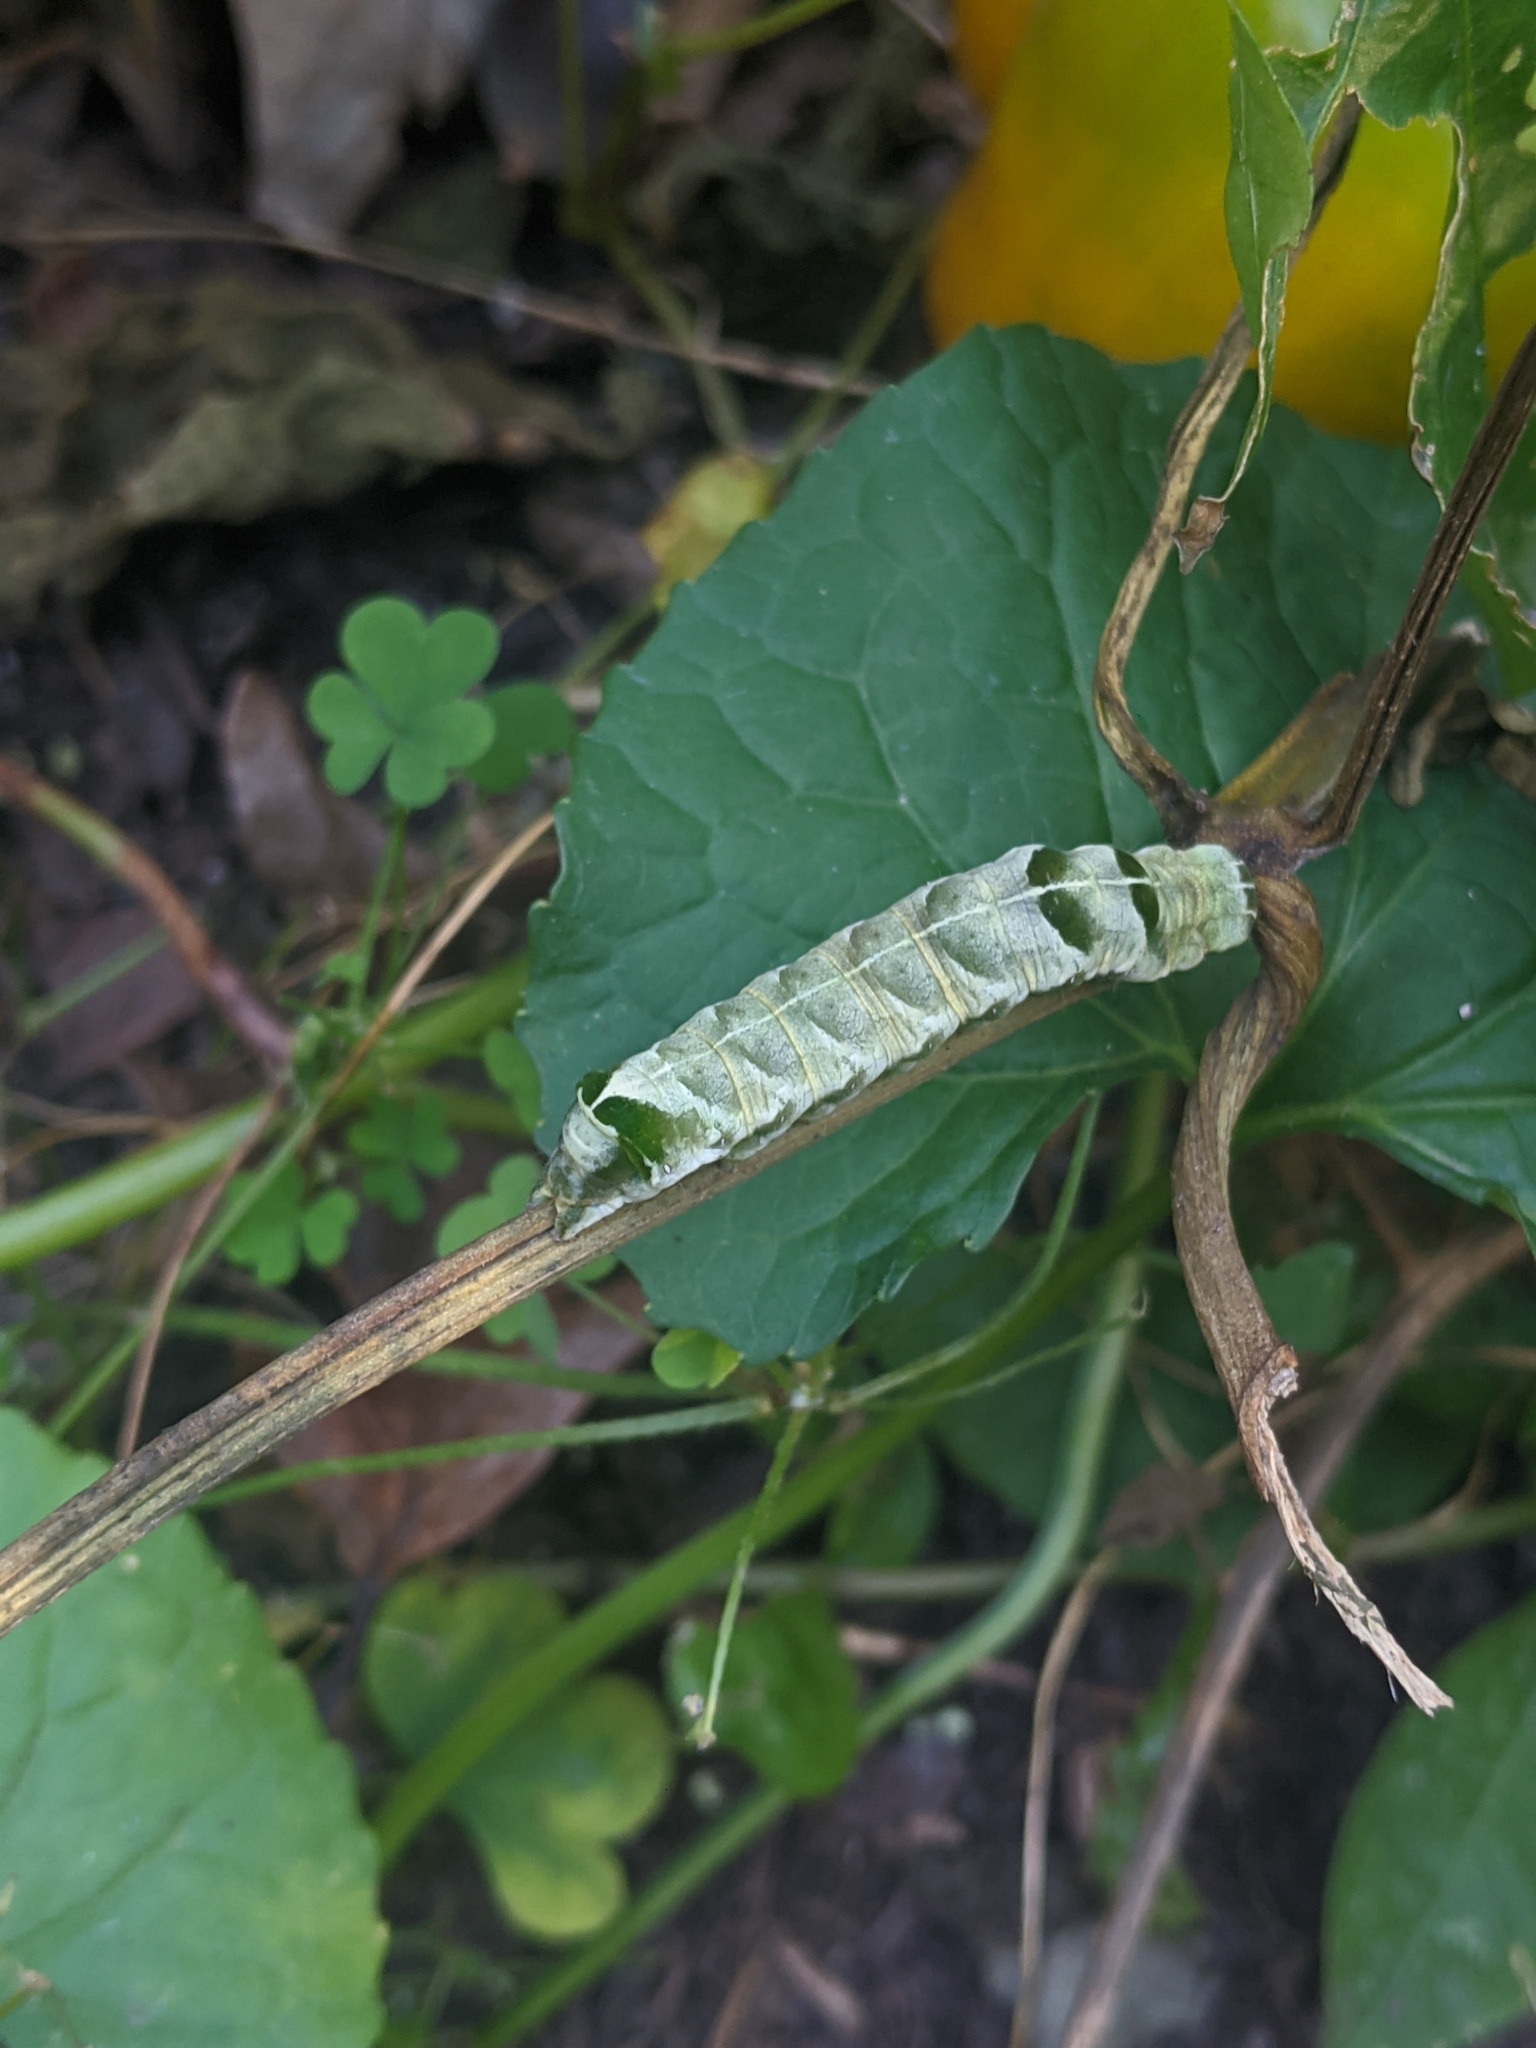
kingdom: Animalia
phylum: Arthropoda
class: Insecta
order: Lepidoptera
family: Noctuidae
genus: Melanchra
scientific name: Melanchra adjuncta
